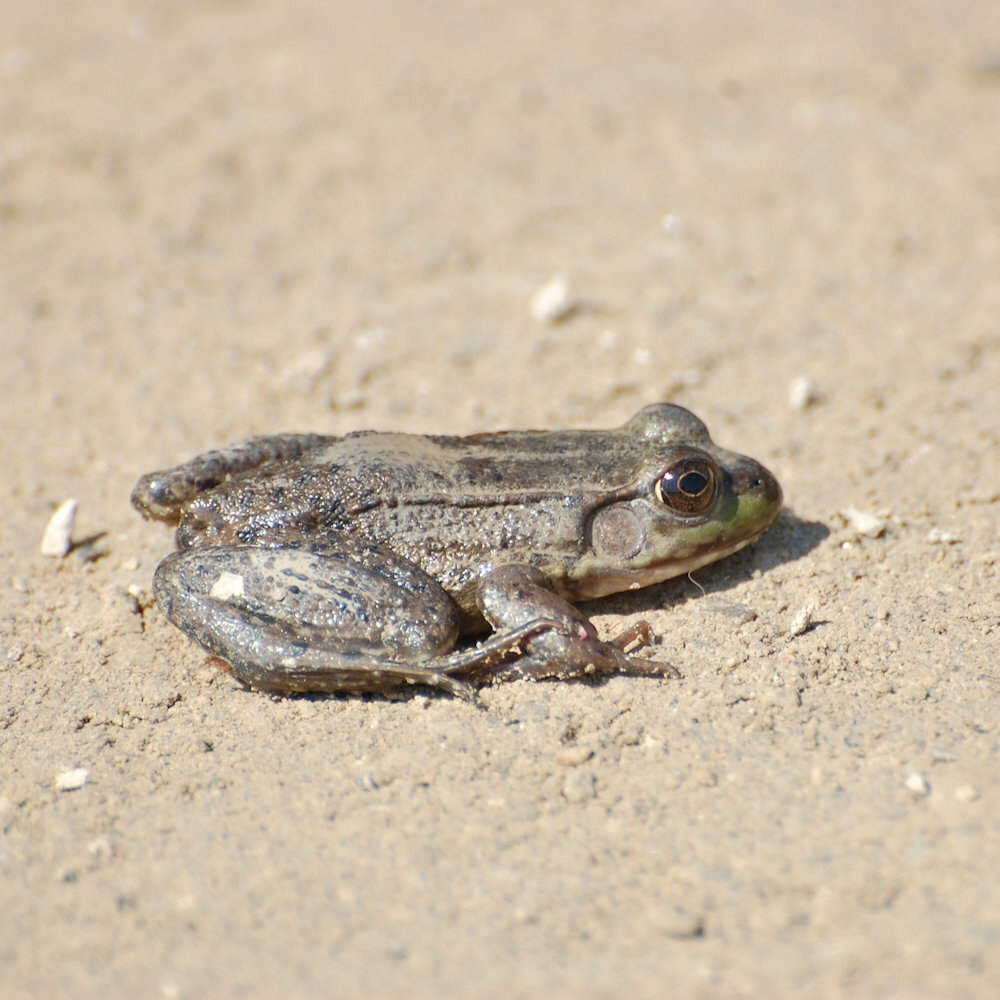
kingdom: Animalia
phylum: Chordata
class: Amphibia
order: Anura
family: Ranidae
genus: Lithobates
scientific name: Lithobates clamitans
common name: Green frog
